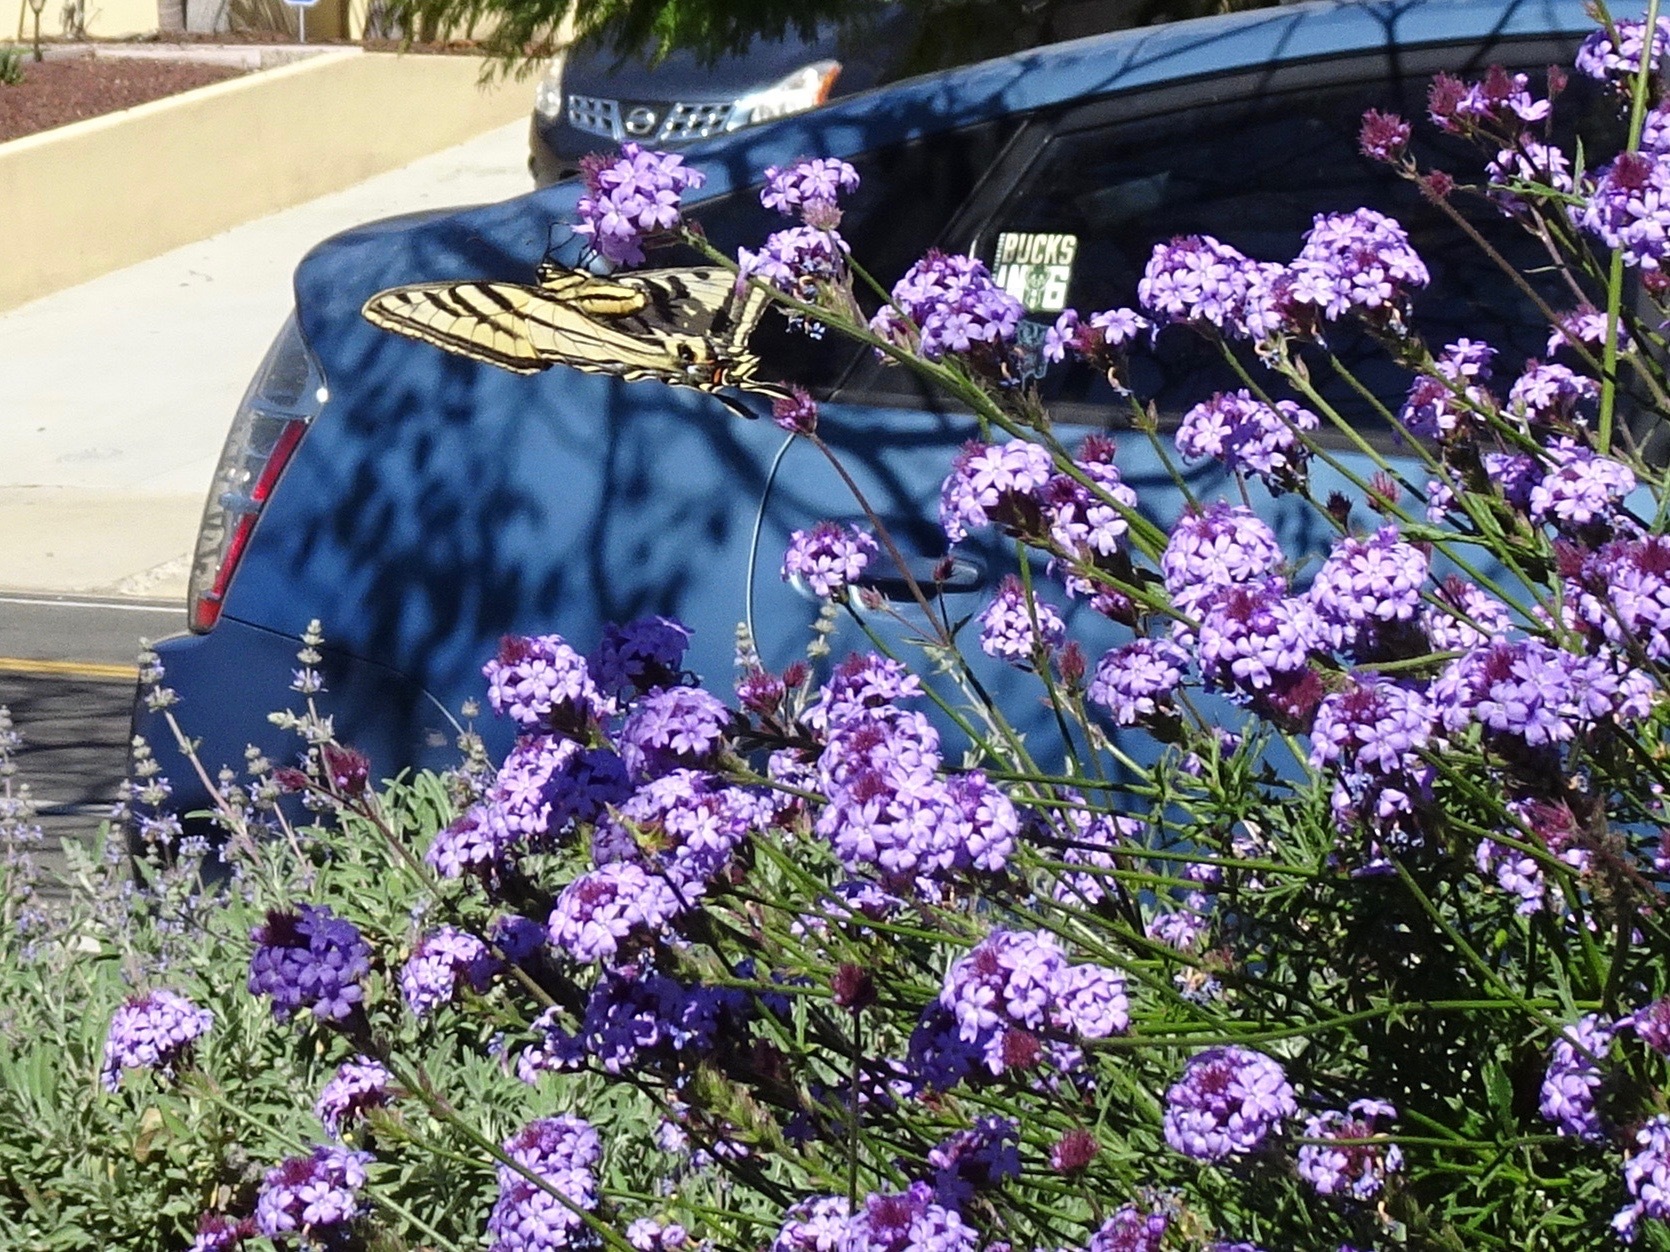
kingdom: Animalia
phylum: Arthropoda
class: Insecta
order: Lepidoptera
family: Papilionidae
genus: Papilio
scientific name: Papilio rutulus
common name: Western tiger swallowtail
